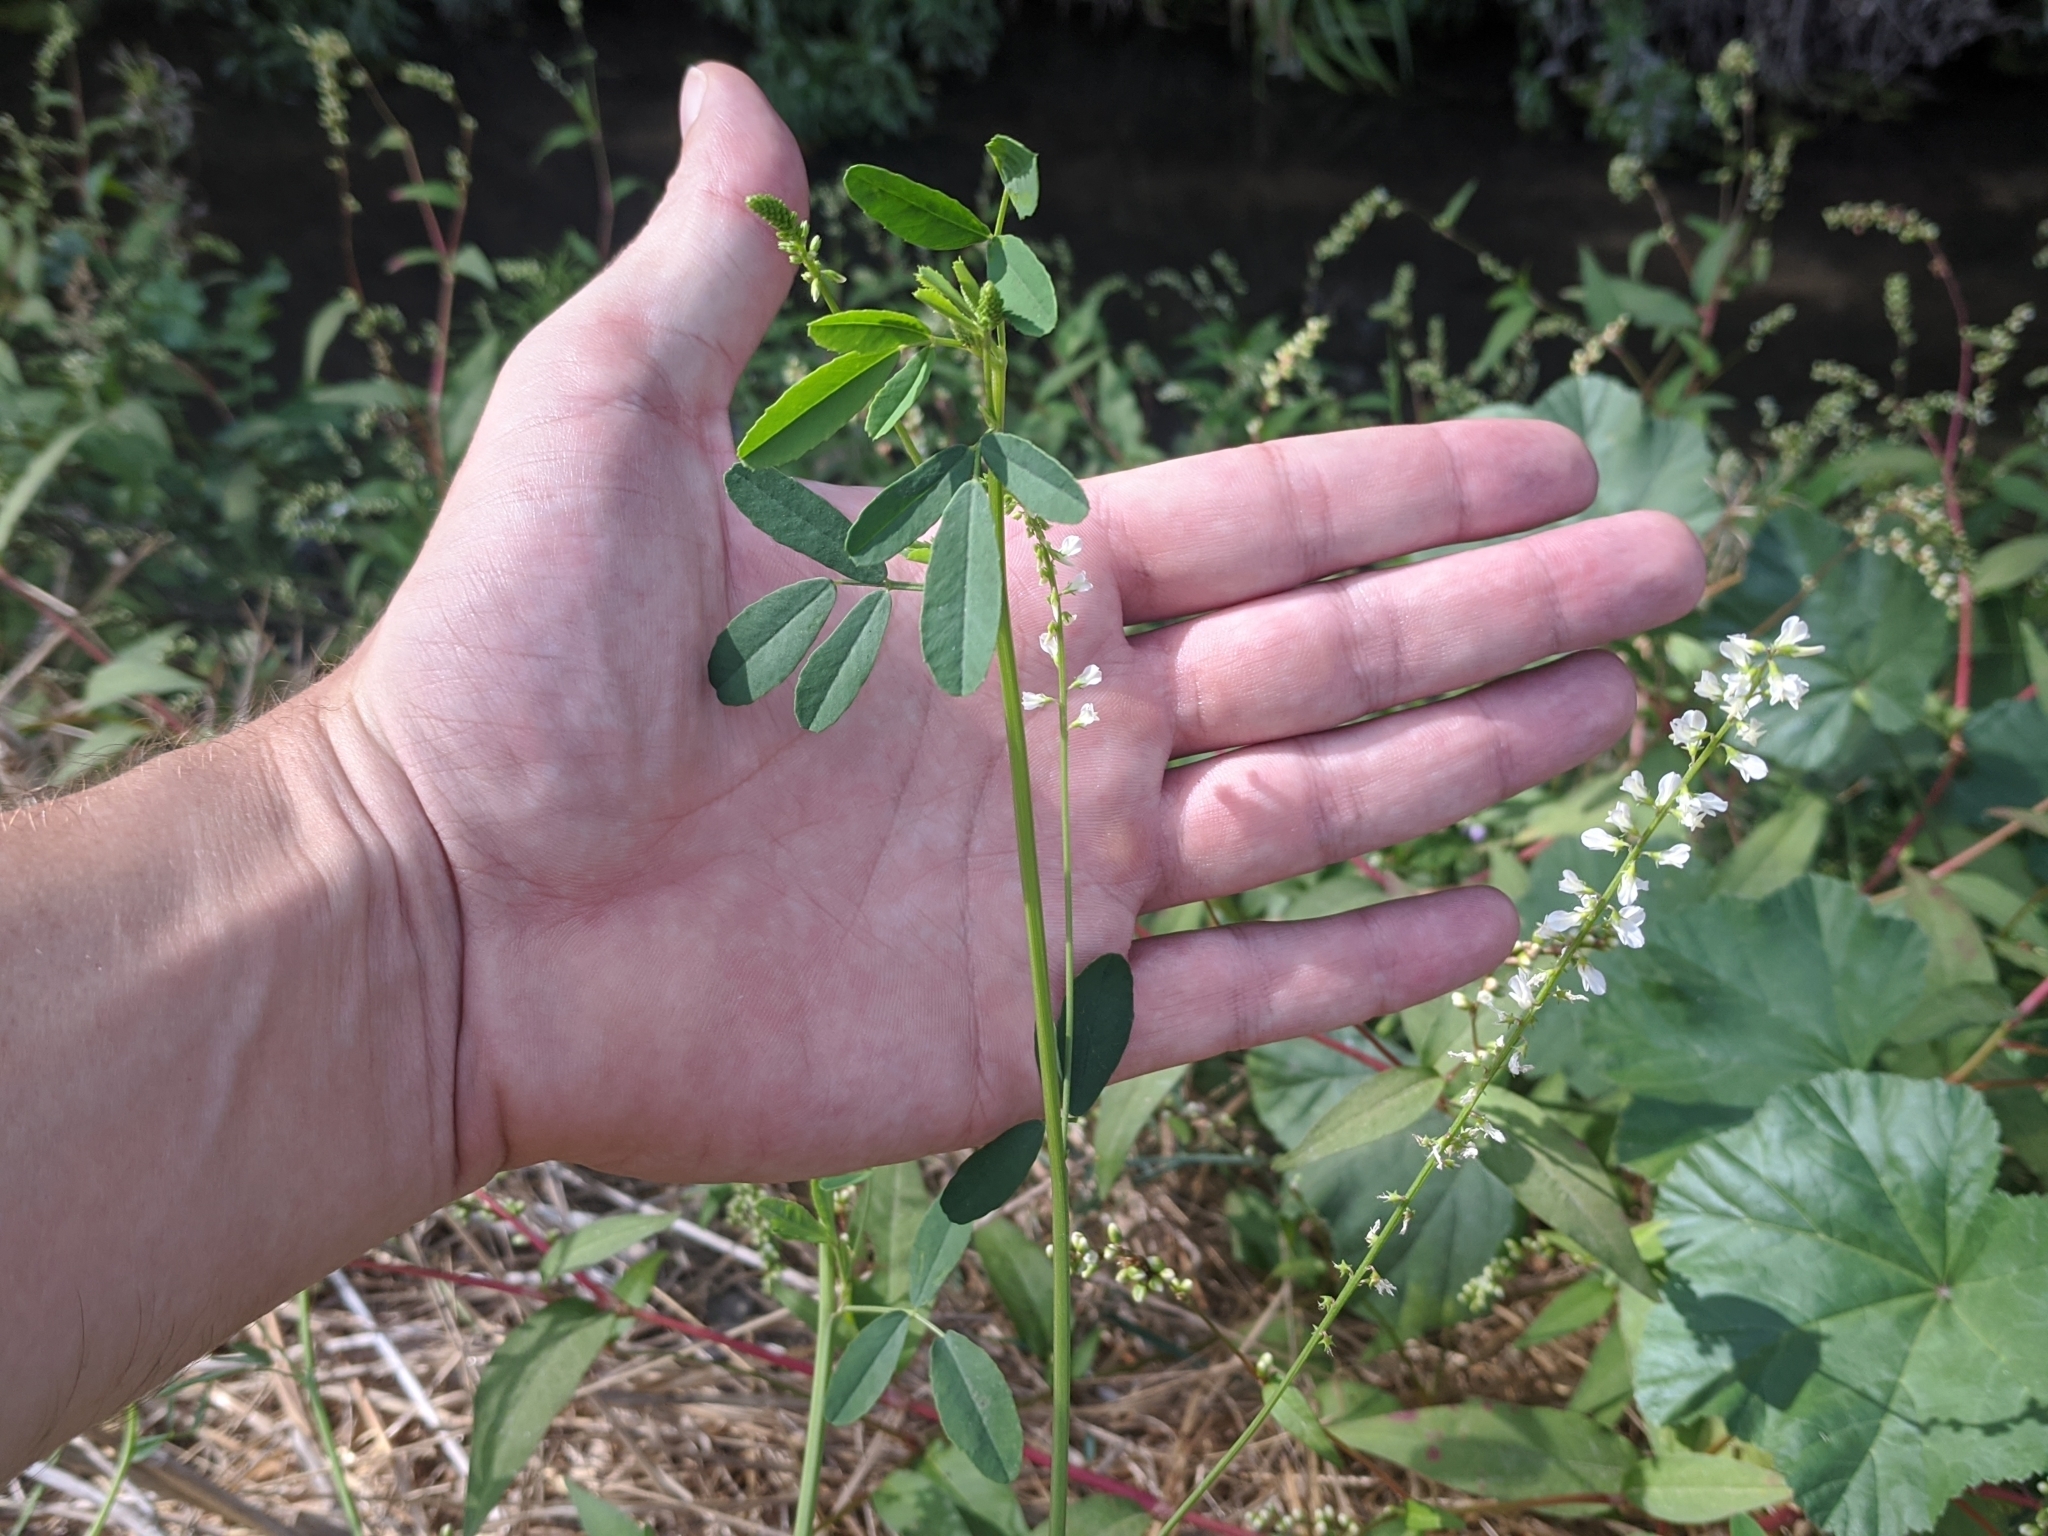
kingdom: Plantae
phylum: Tracheophyta
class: Magnoliopsida
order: Fabales
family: Fabaceae
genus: Melilotus
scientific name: Melilotus albus
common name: White melilot
